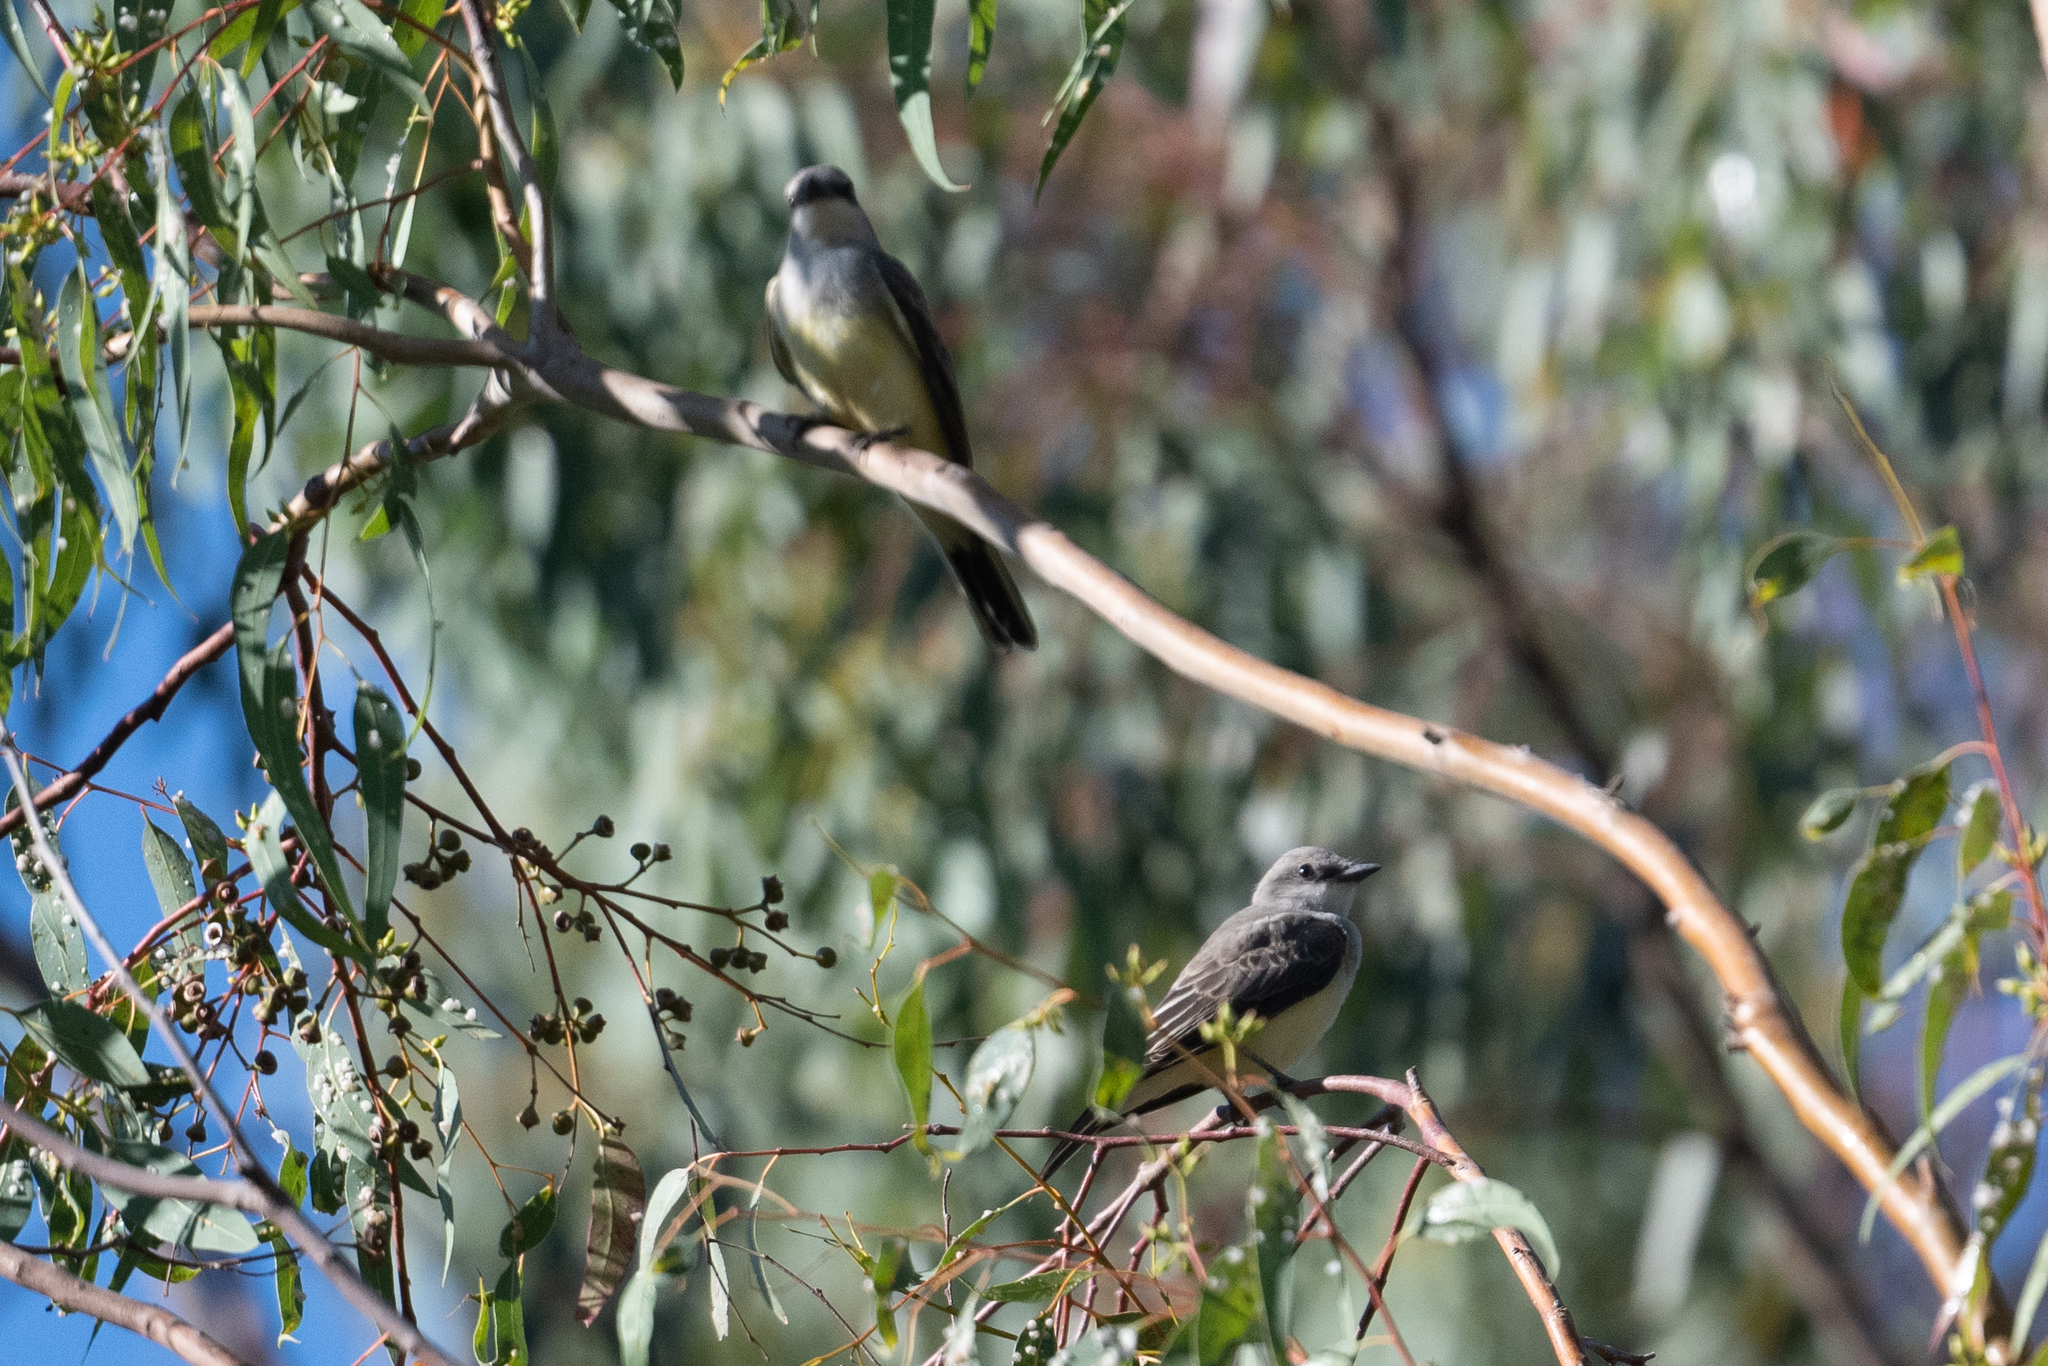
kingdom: Animalia
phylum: Chordata
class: Aves
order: Passeriformes
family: Tyrannidae
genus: Tyrannus
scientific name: Tyrannus verticalis
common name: Western kingbird
